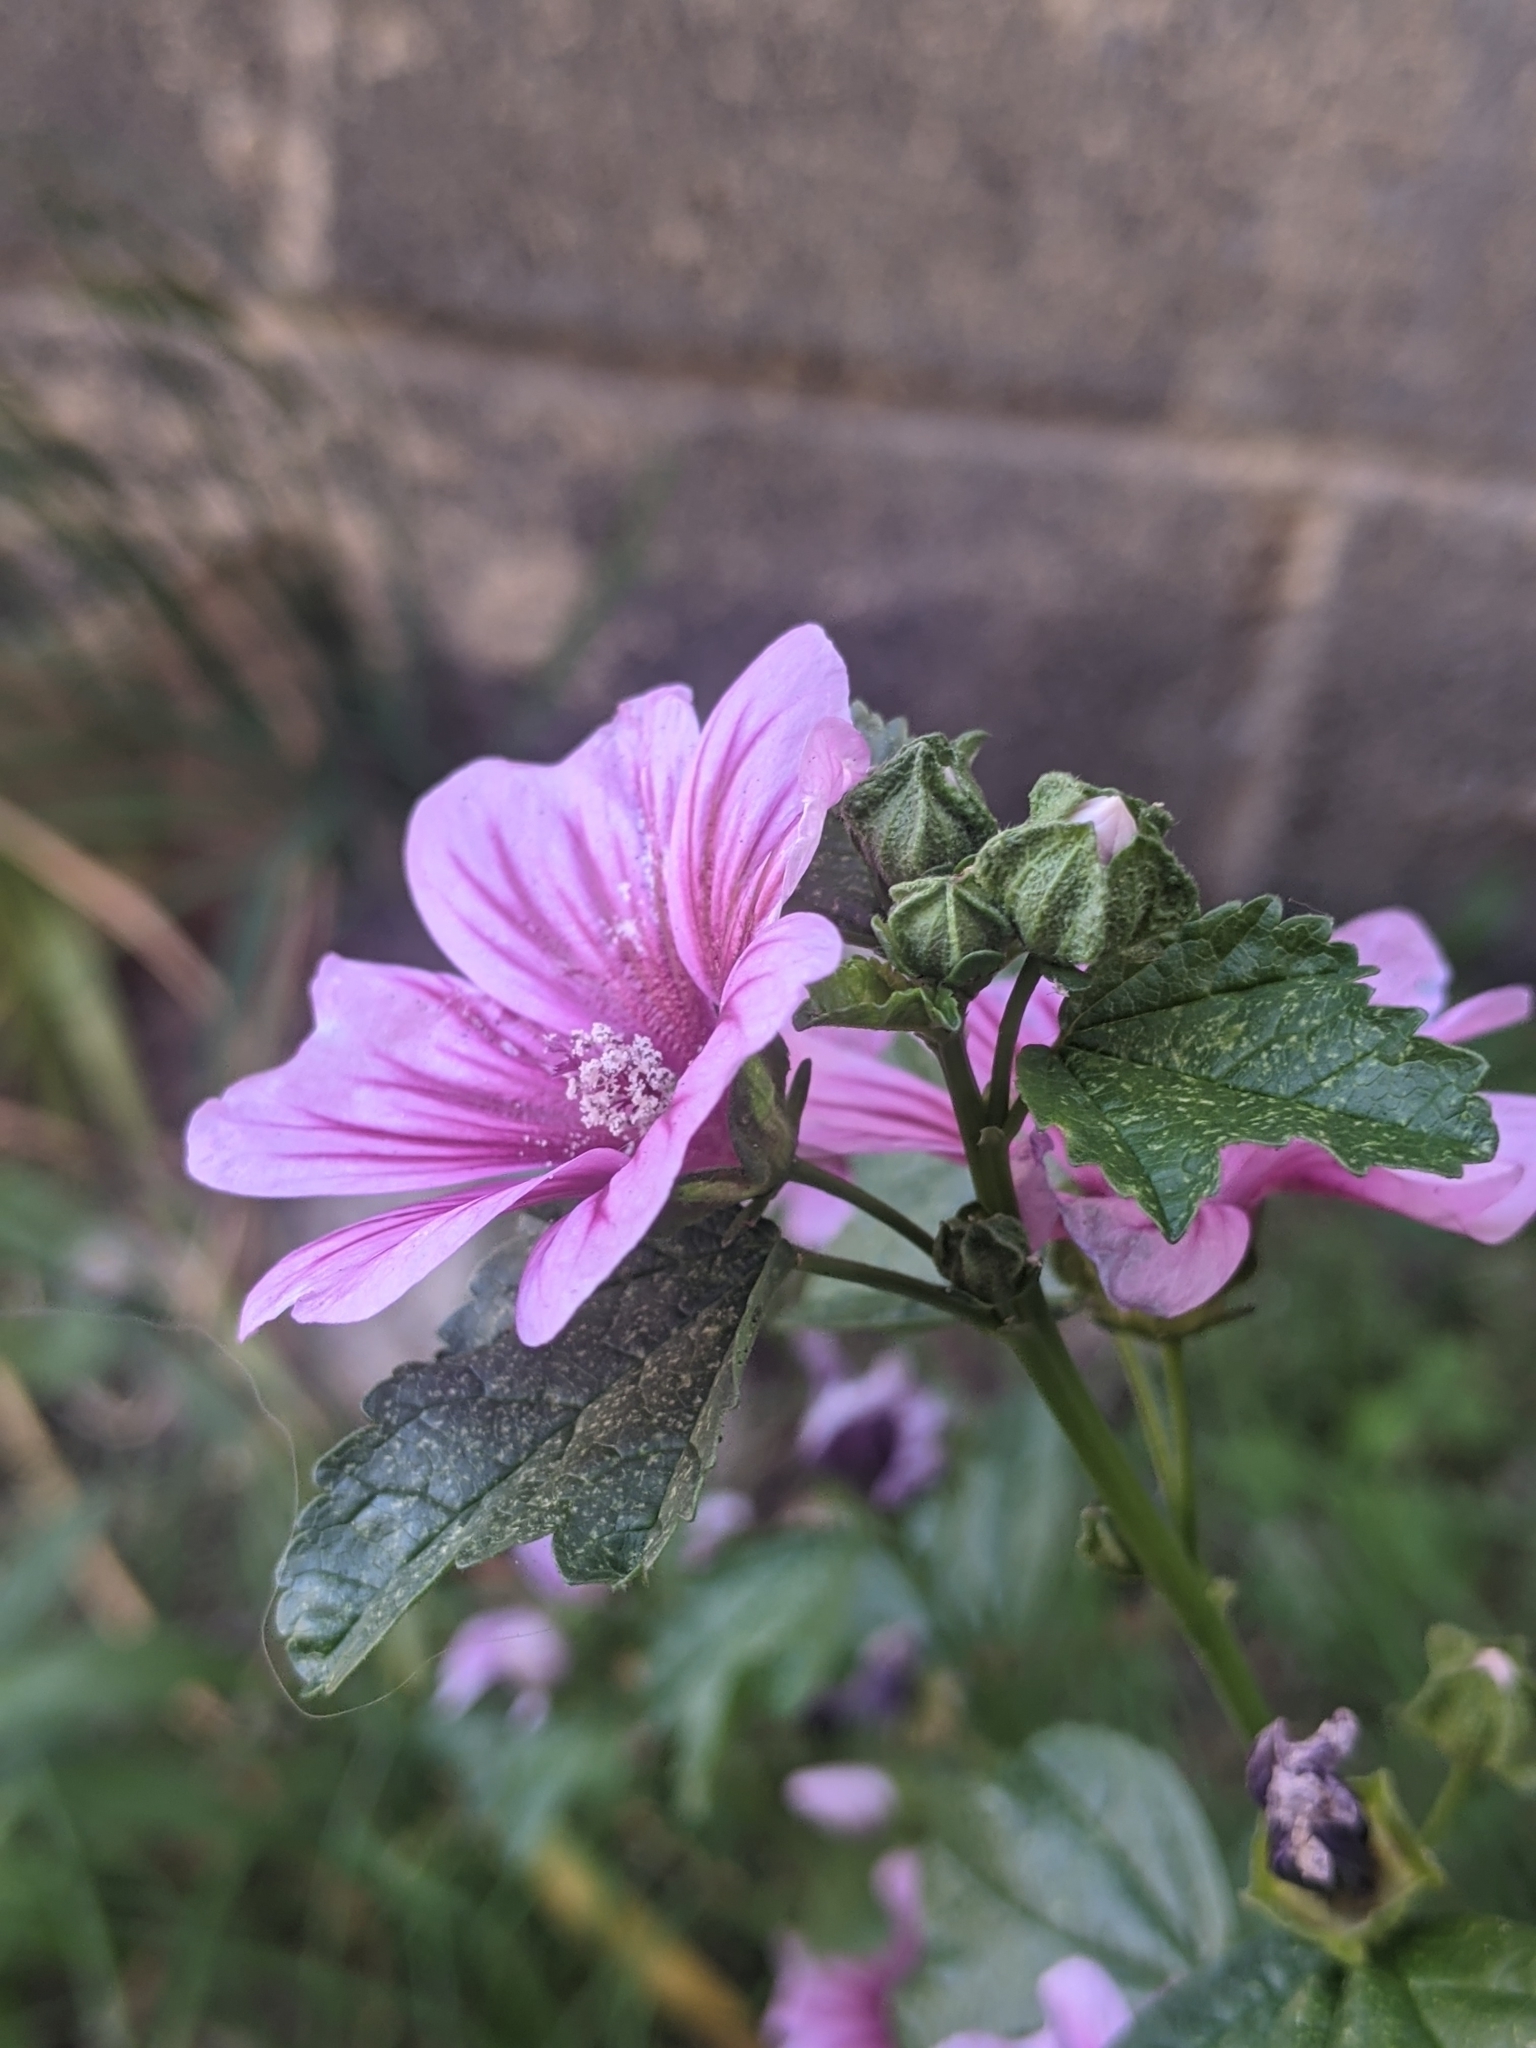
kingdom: Plantae
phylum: Tracheophyta
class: Magnoliopsida
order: Malvales
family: Malvaceae
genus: Malva
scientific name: Malva sylvestris
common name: Common mallow
